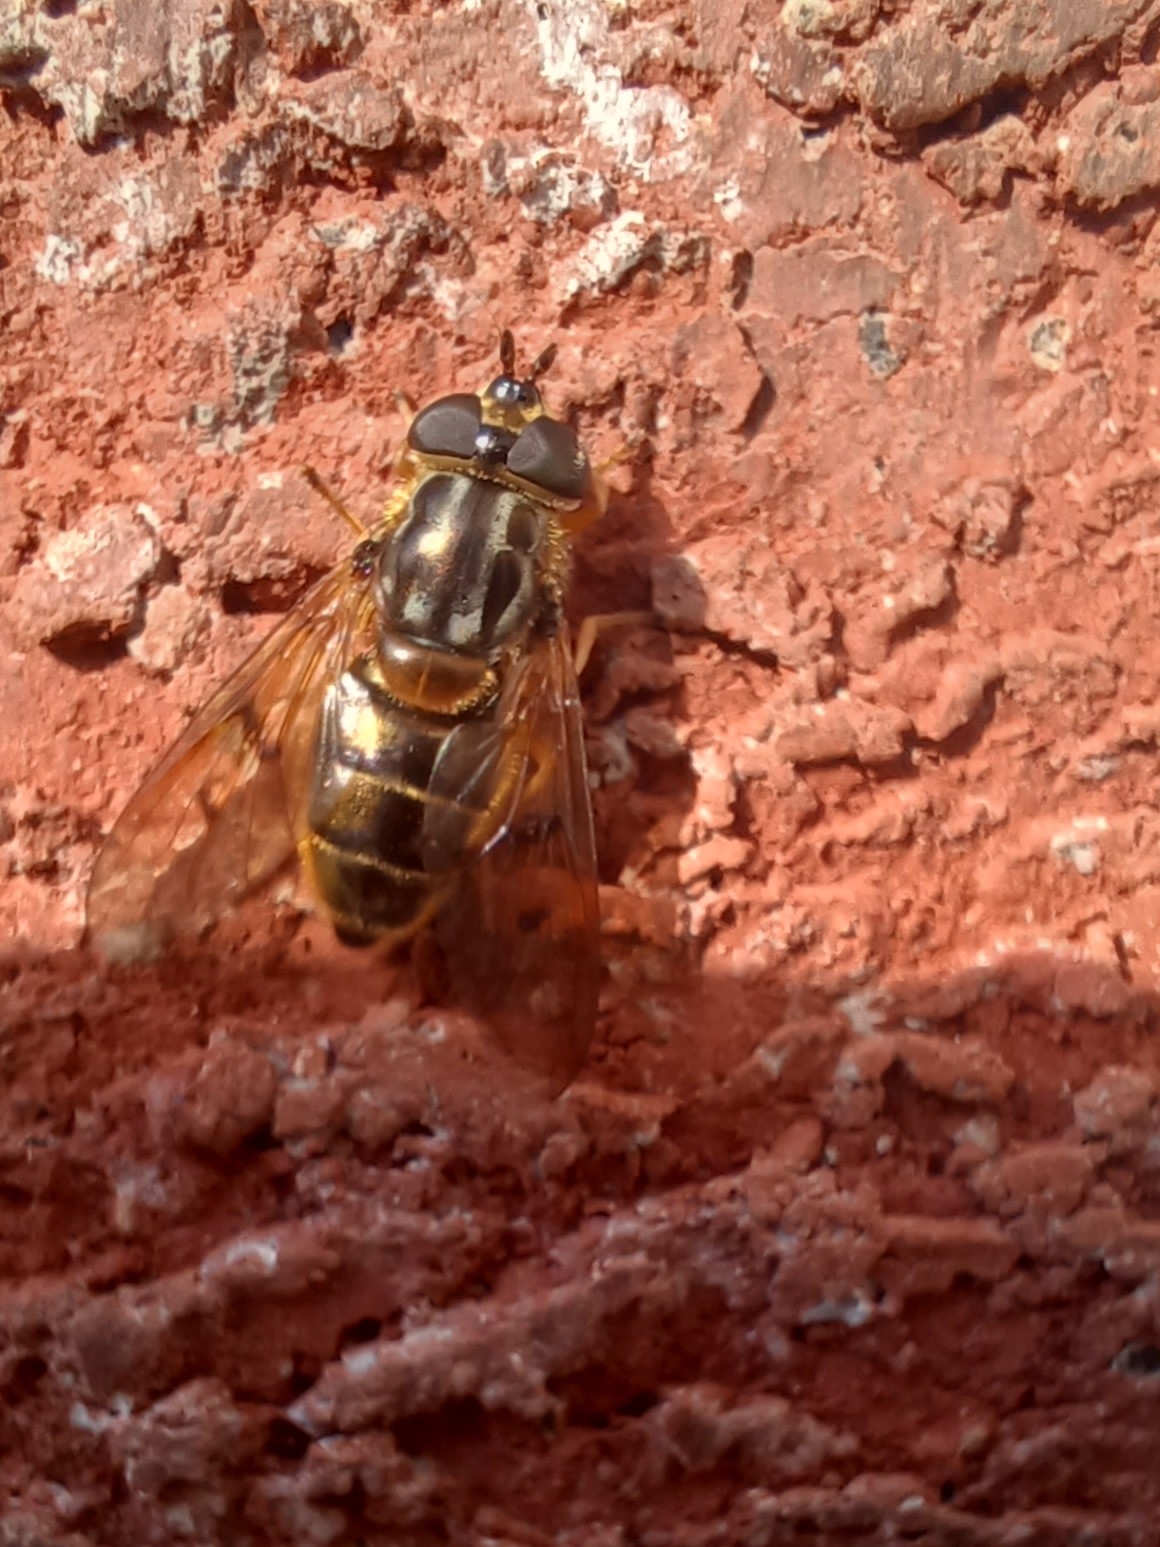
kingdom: Animalia
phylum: Arthropoda
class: Insecta
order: Diptera
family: Syrphidae
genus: Ferdinandea
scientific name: Ferdinandea buccata
